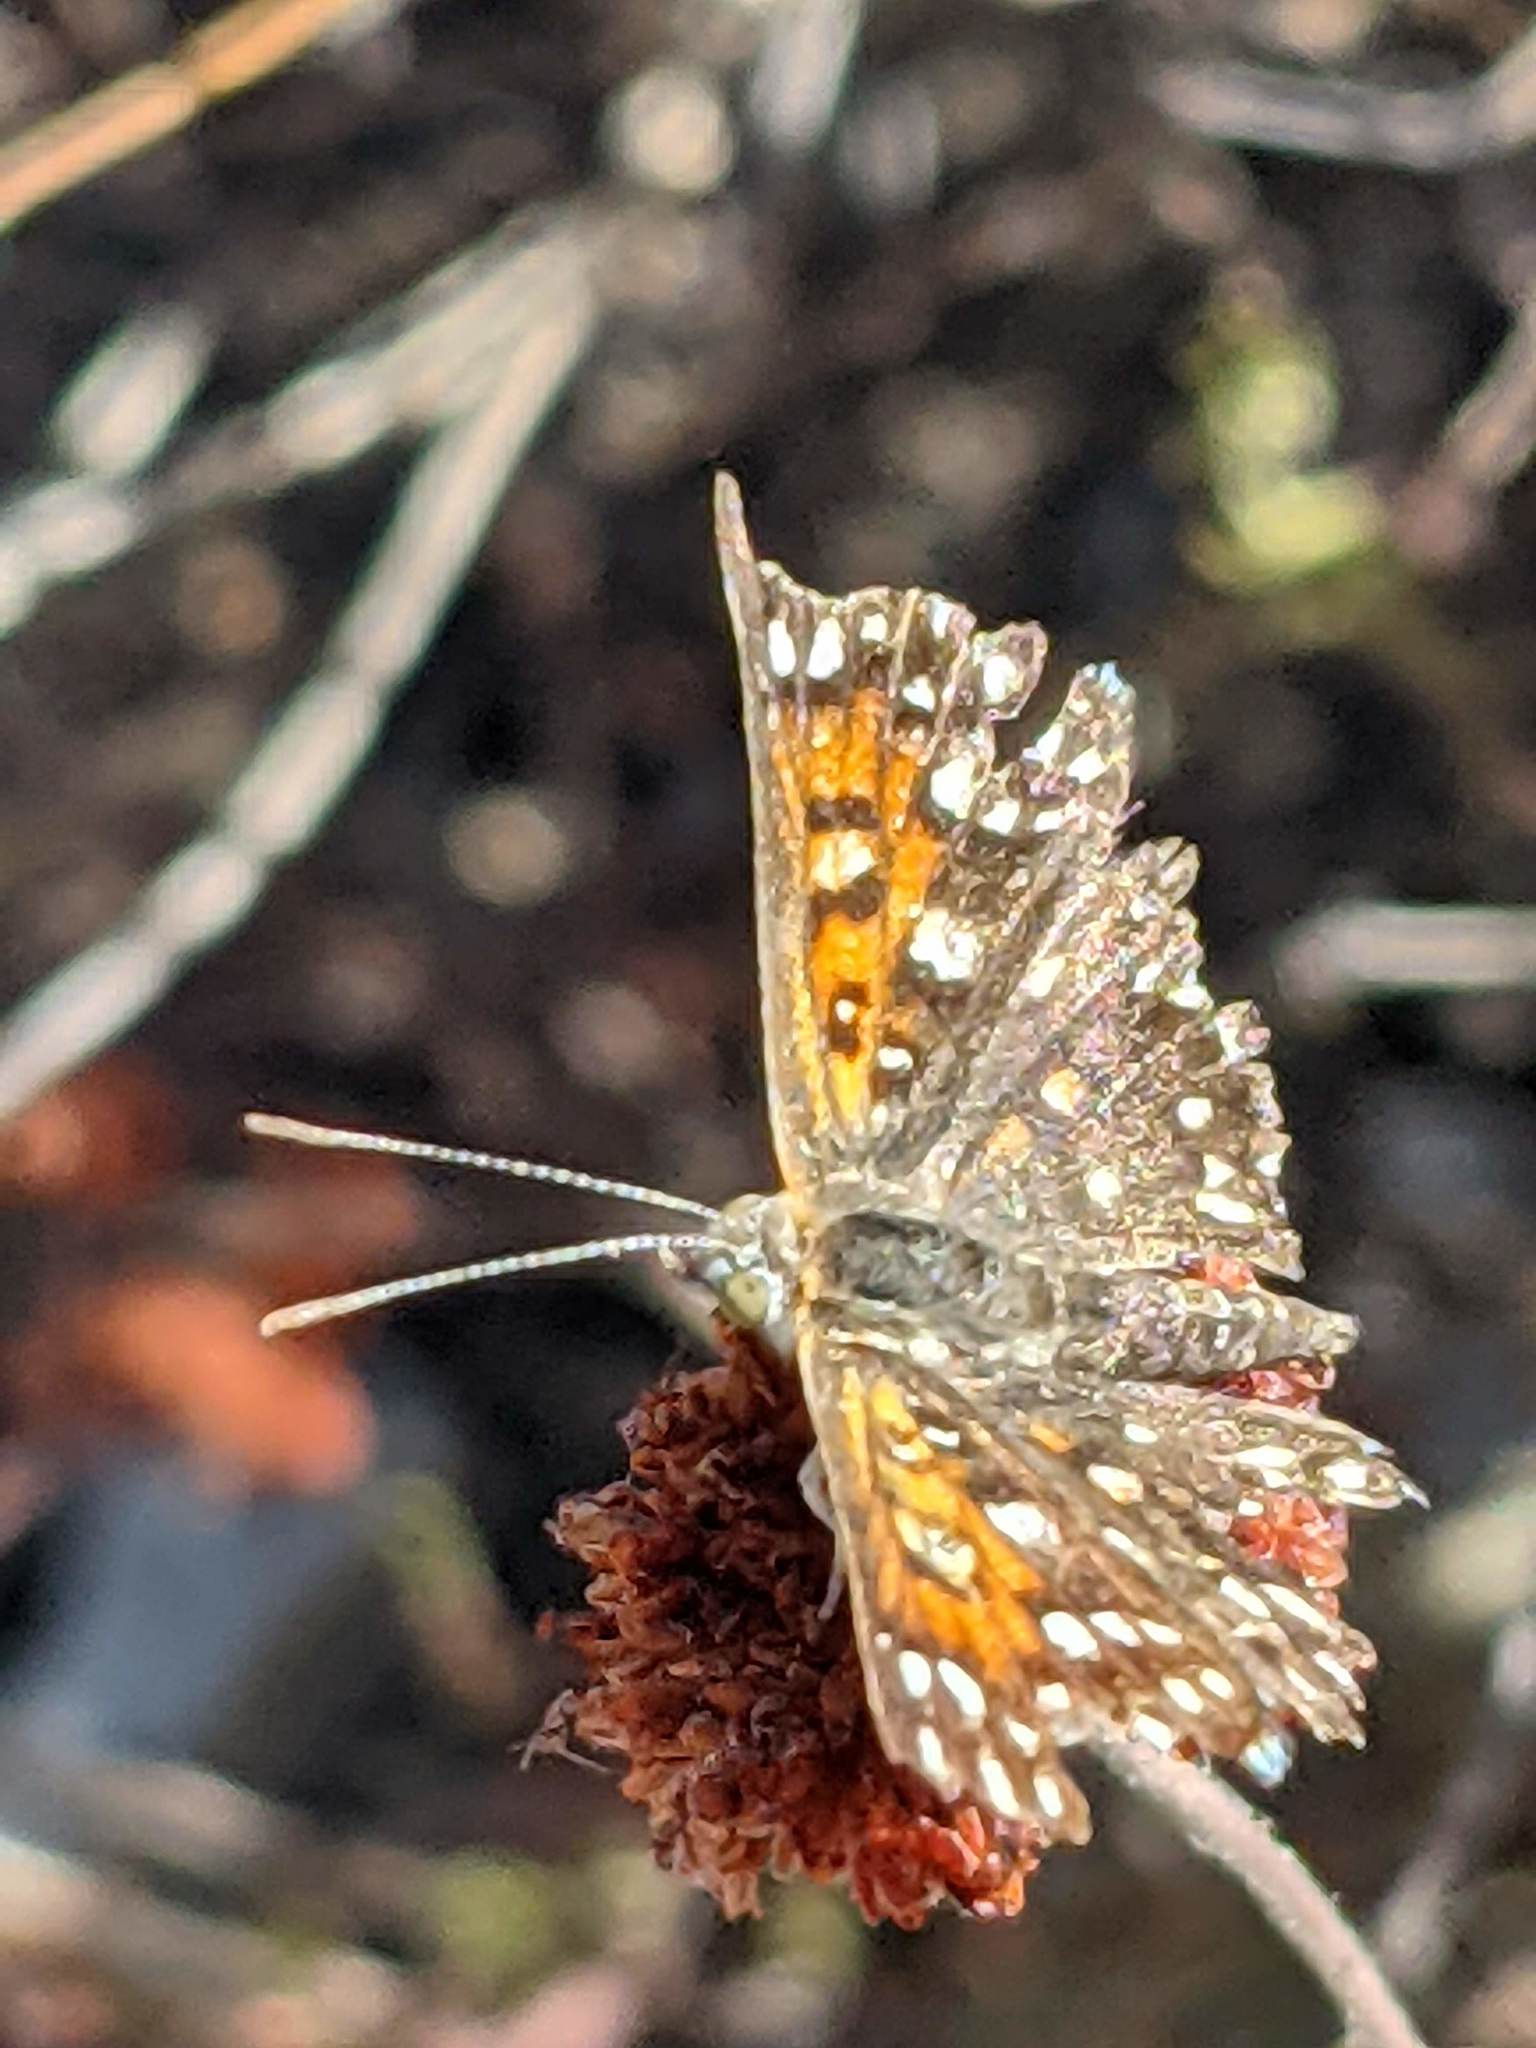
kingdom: Animalia
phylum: Arthropoda
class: Insecta
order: Lepidoptera
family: Riodinidae
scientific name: Riodinidae
